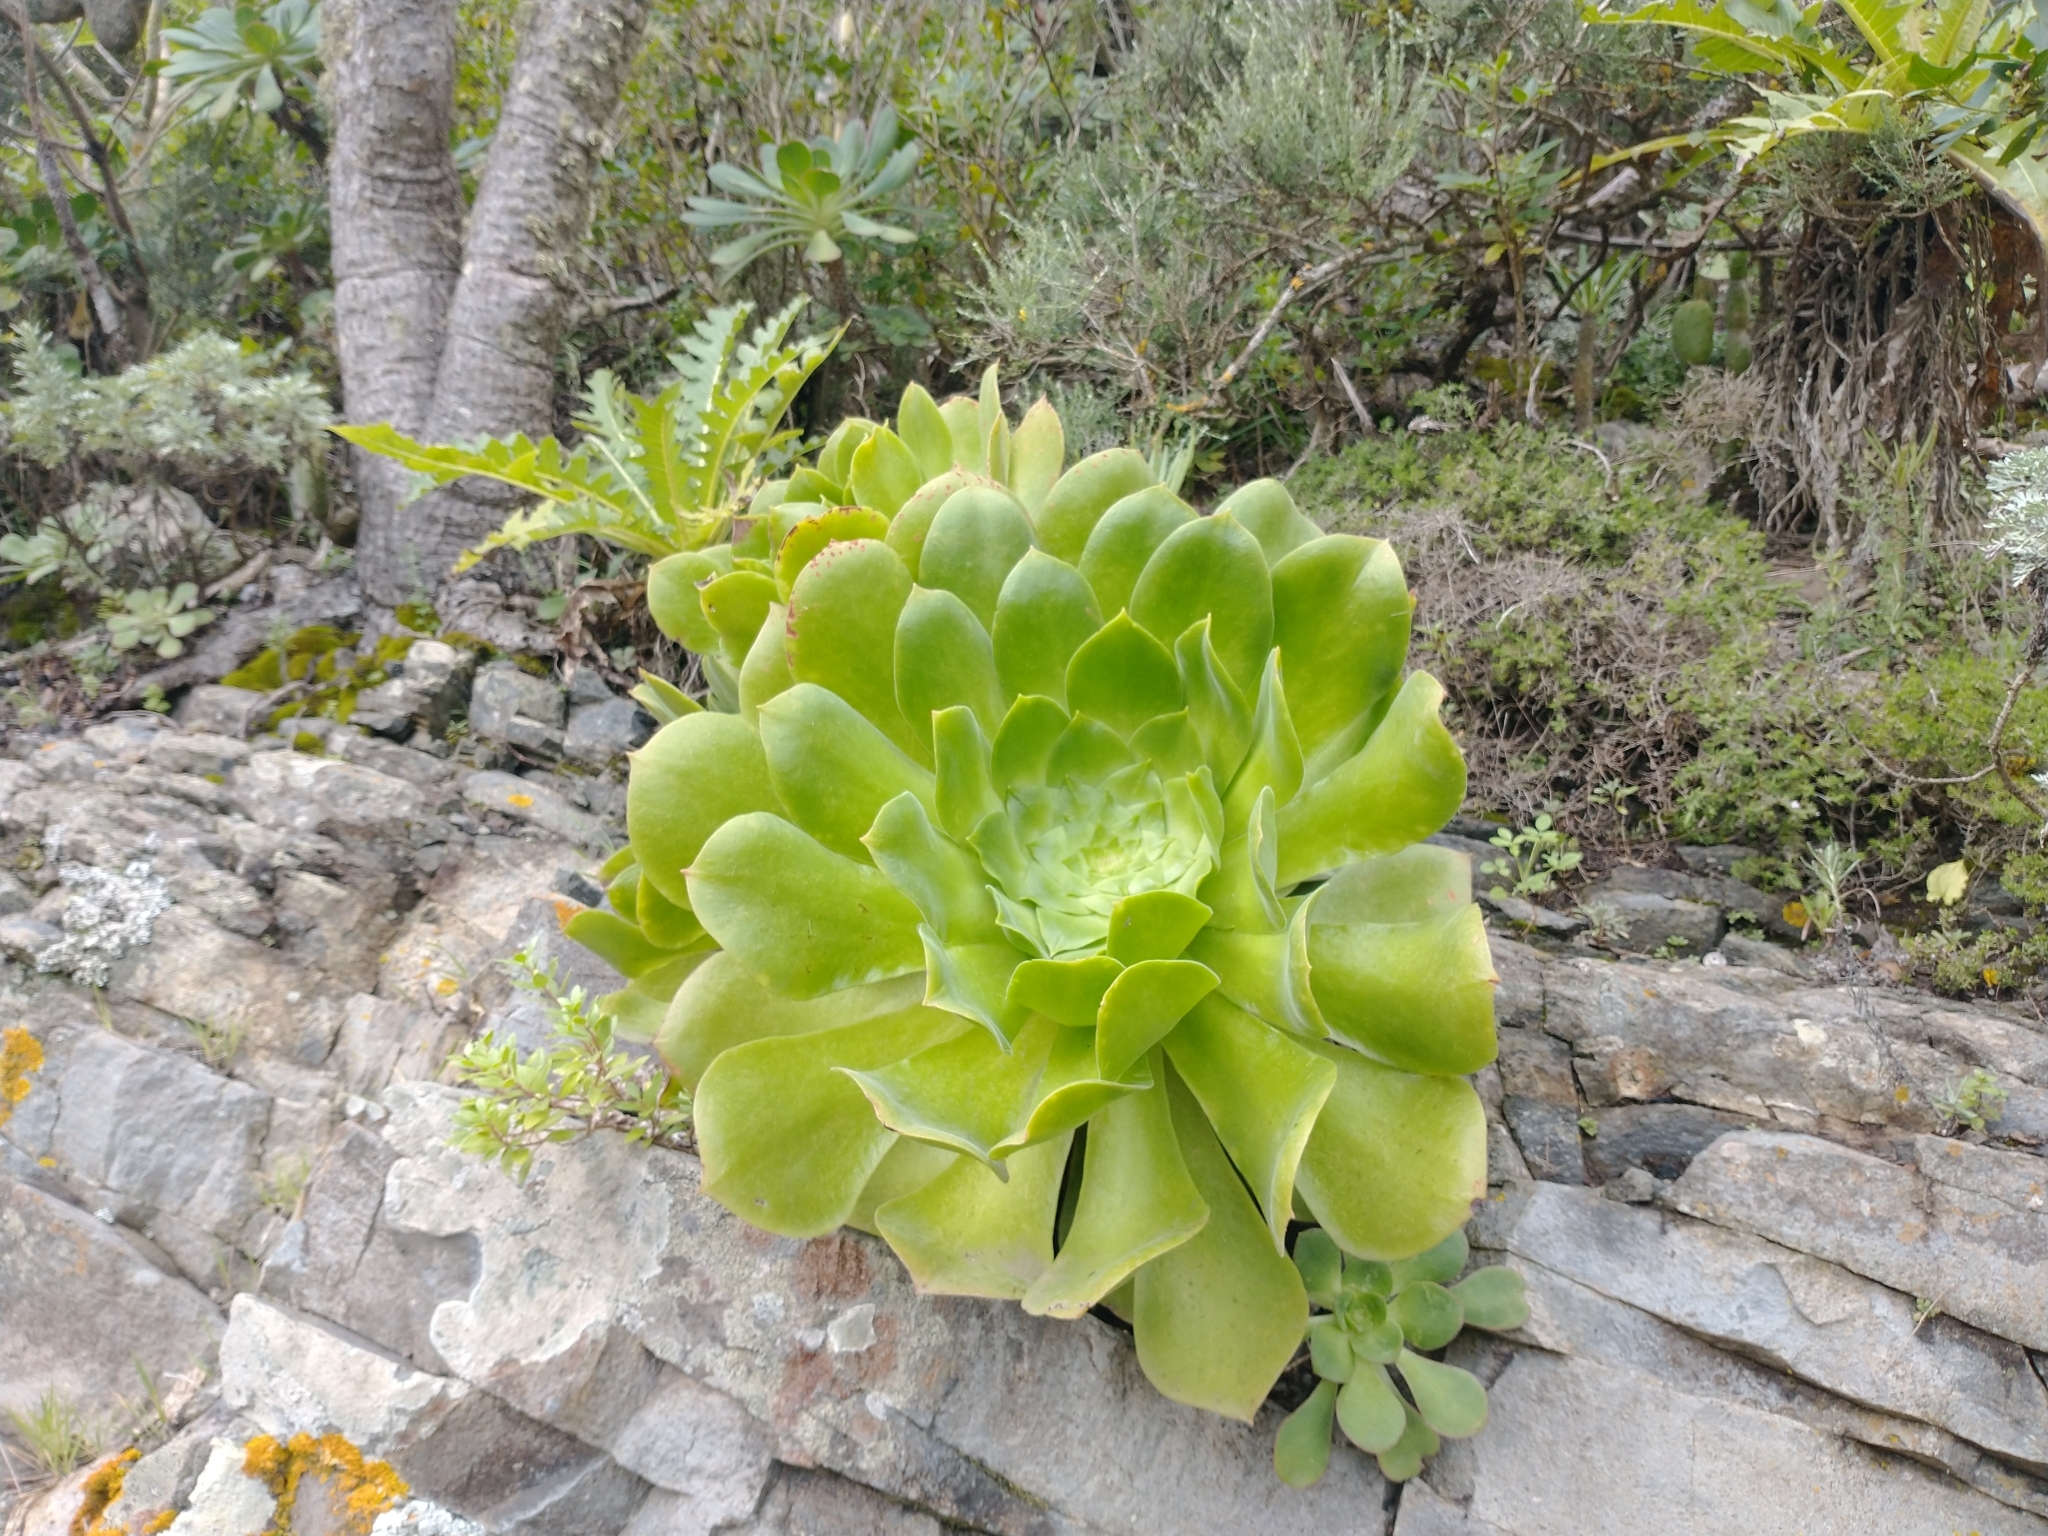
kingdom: Plantae
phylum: Tracheophyta
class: Magnoliopsida
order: Saxifragales
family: Crassulaceae
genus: Aeonium
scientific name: Aeonium canariense
